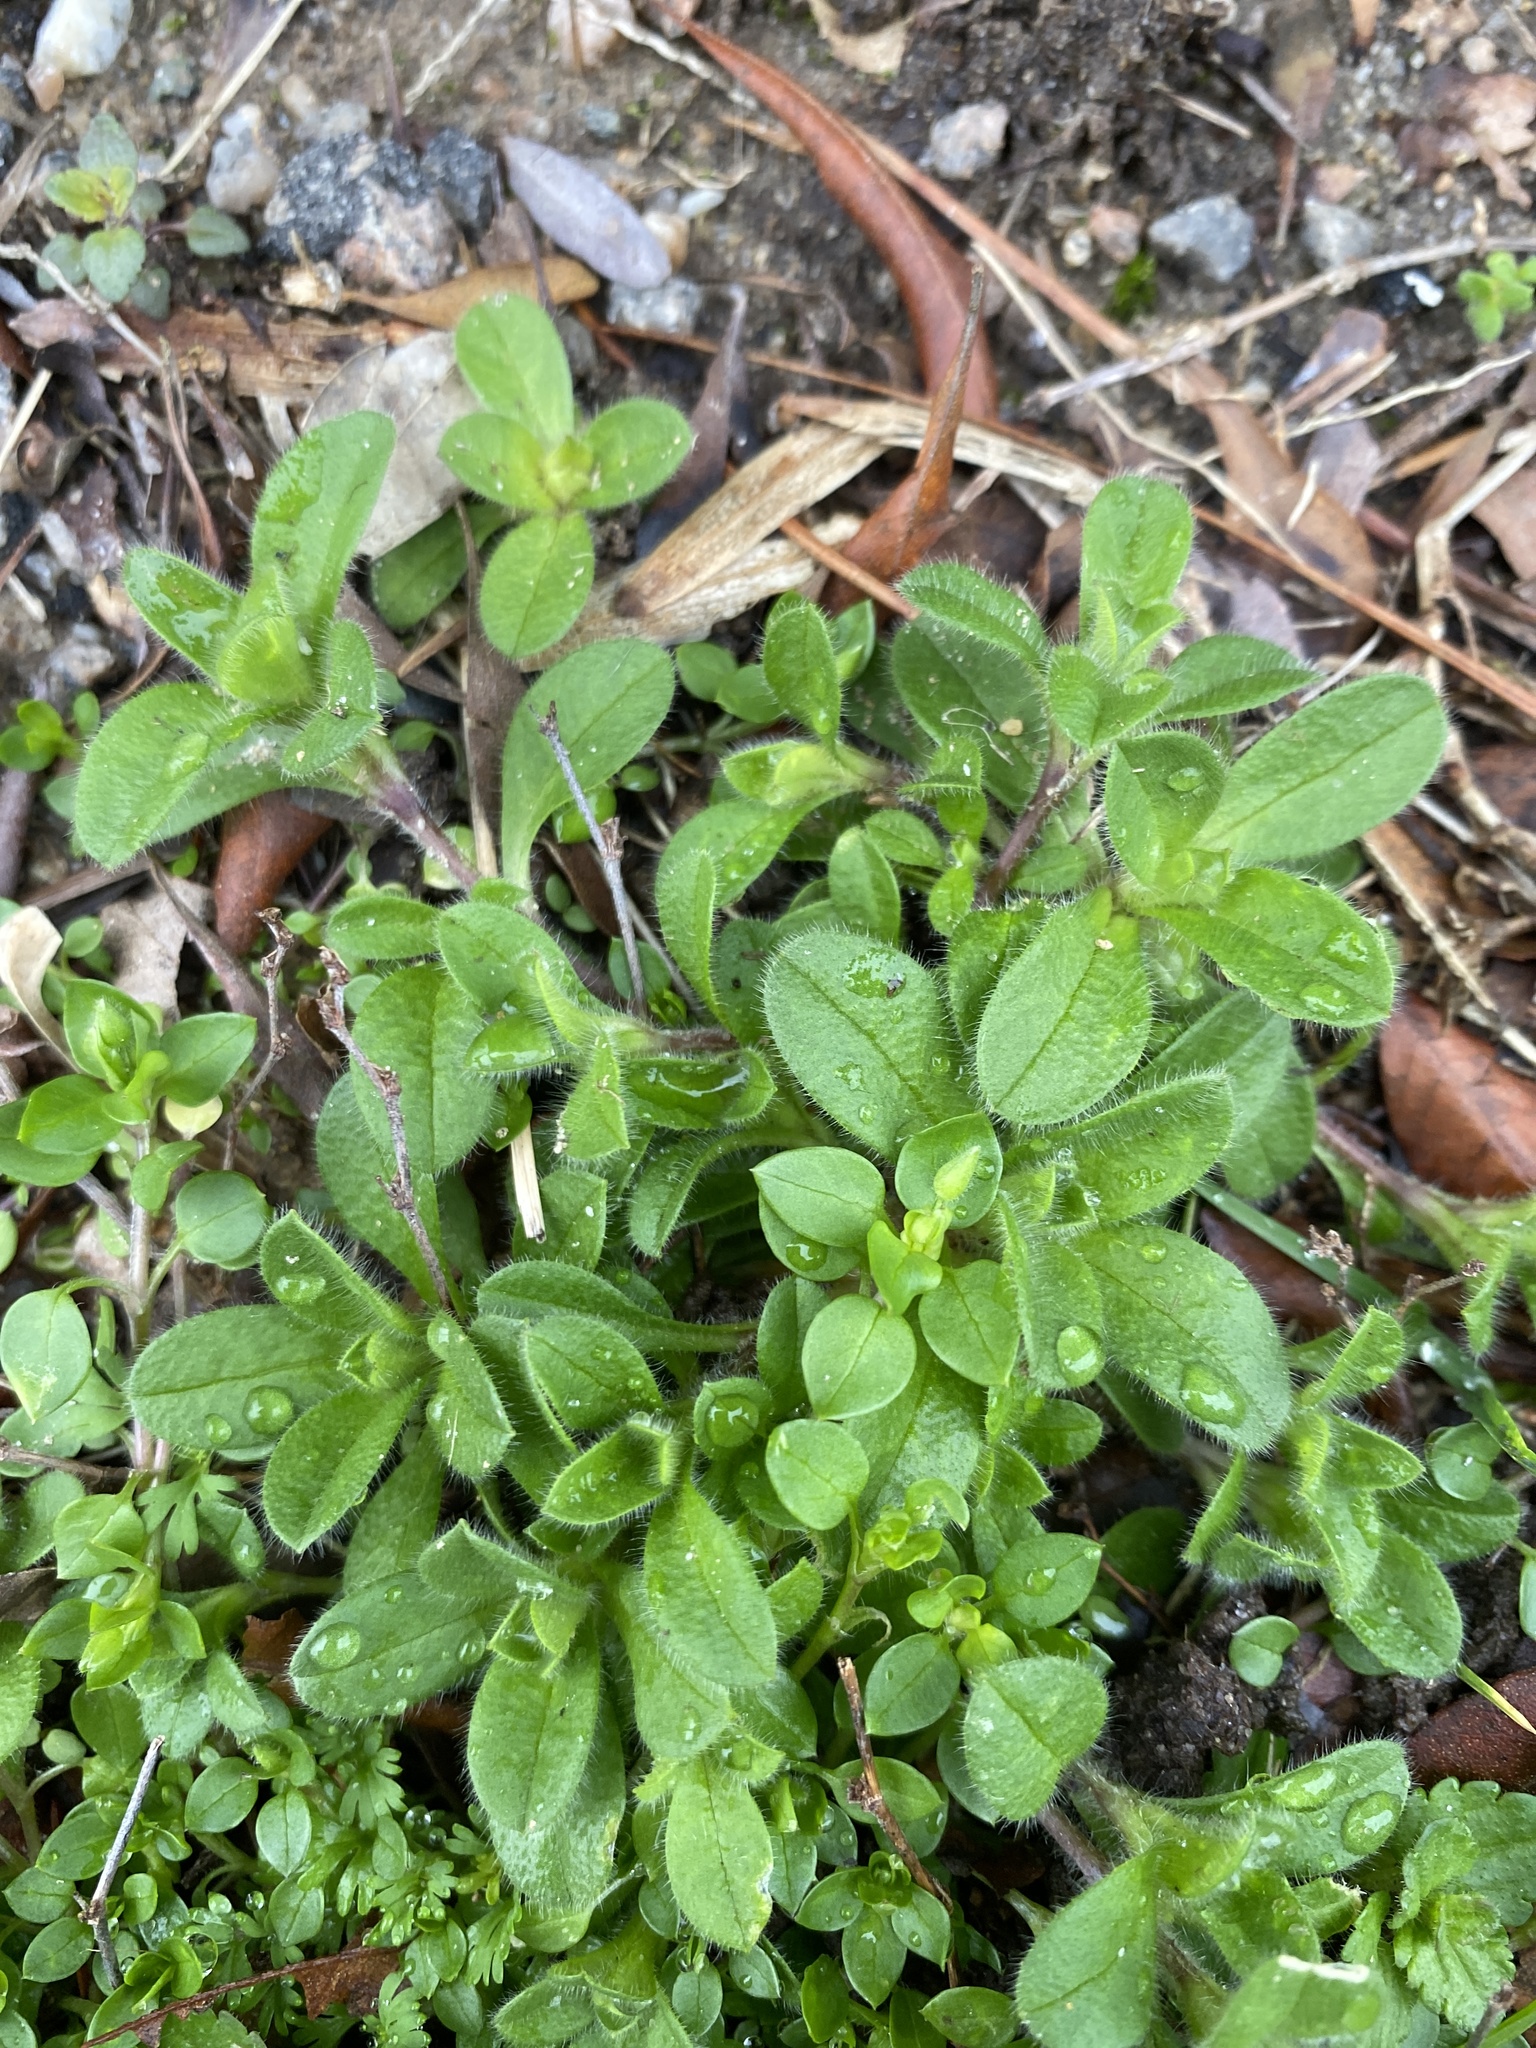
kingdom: Plantae
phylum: Tracheophyta
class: Magnoliopsida
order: Caryophyllales
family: Caryophyllaceae
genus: Cerastium
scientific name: Cerastium fontanum
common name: Common mouse-ear
